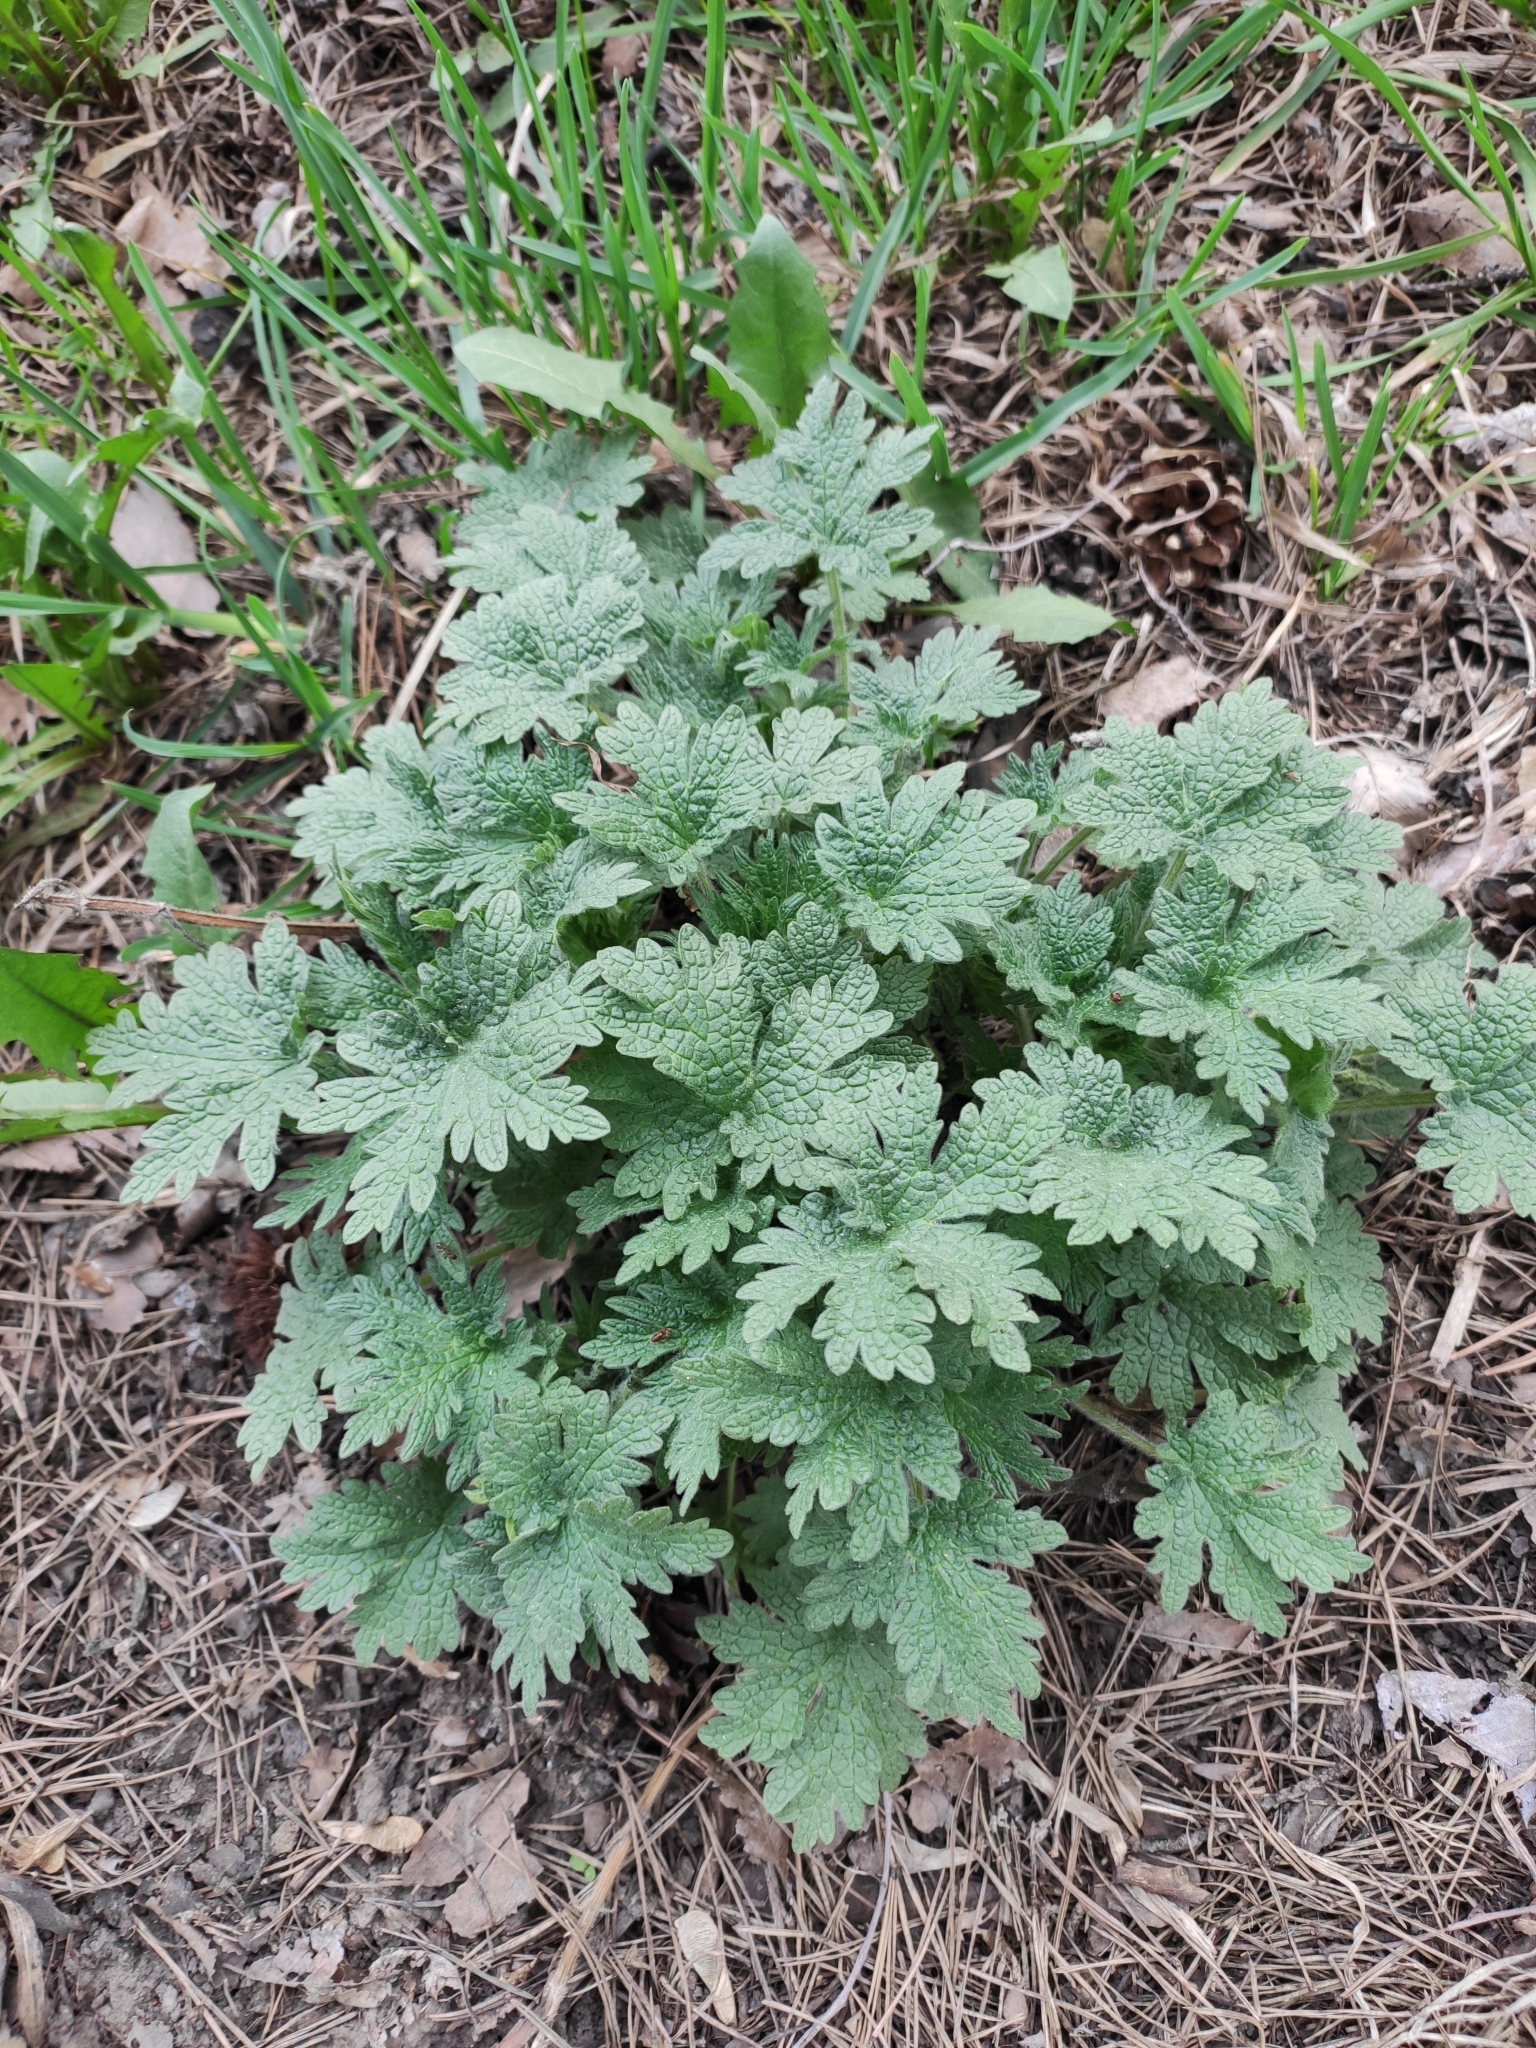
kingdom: Plantae
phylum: Tracheophyta
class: Magnoliopsida
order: Lamiales
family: Lamiaceae
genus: Leonurus
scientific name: Leonurus quinquelobatus
